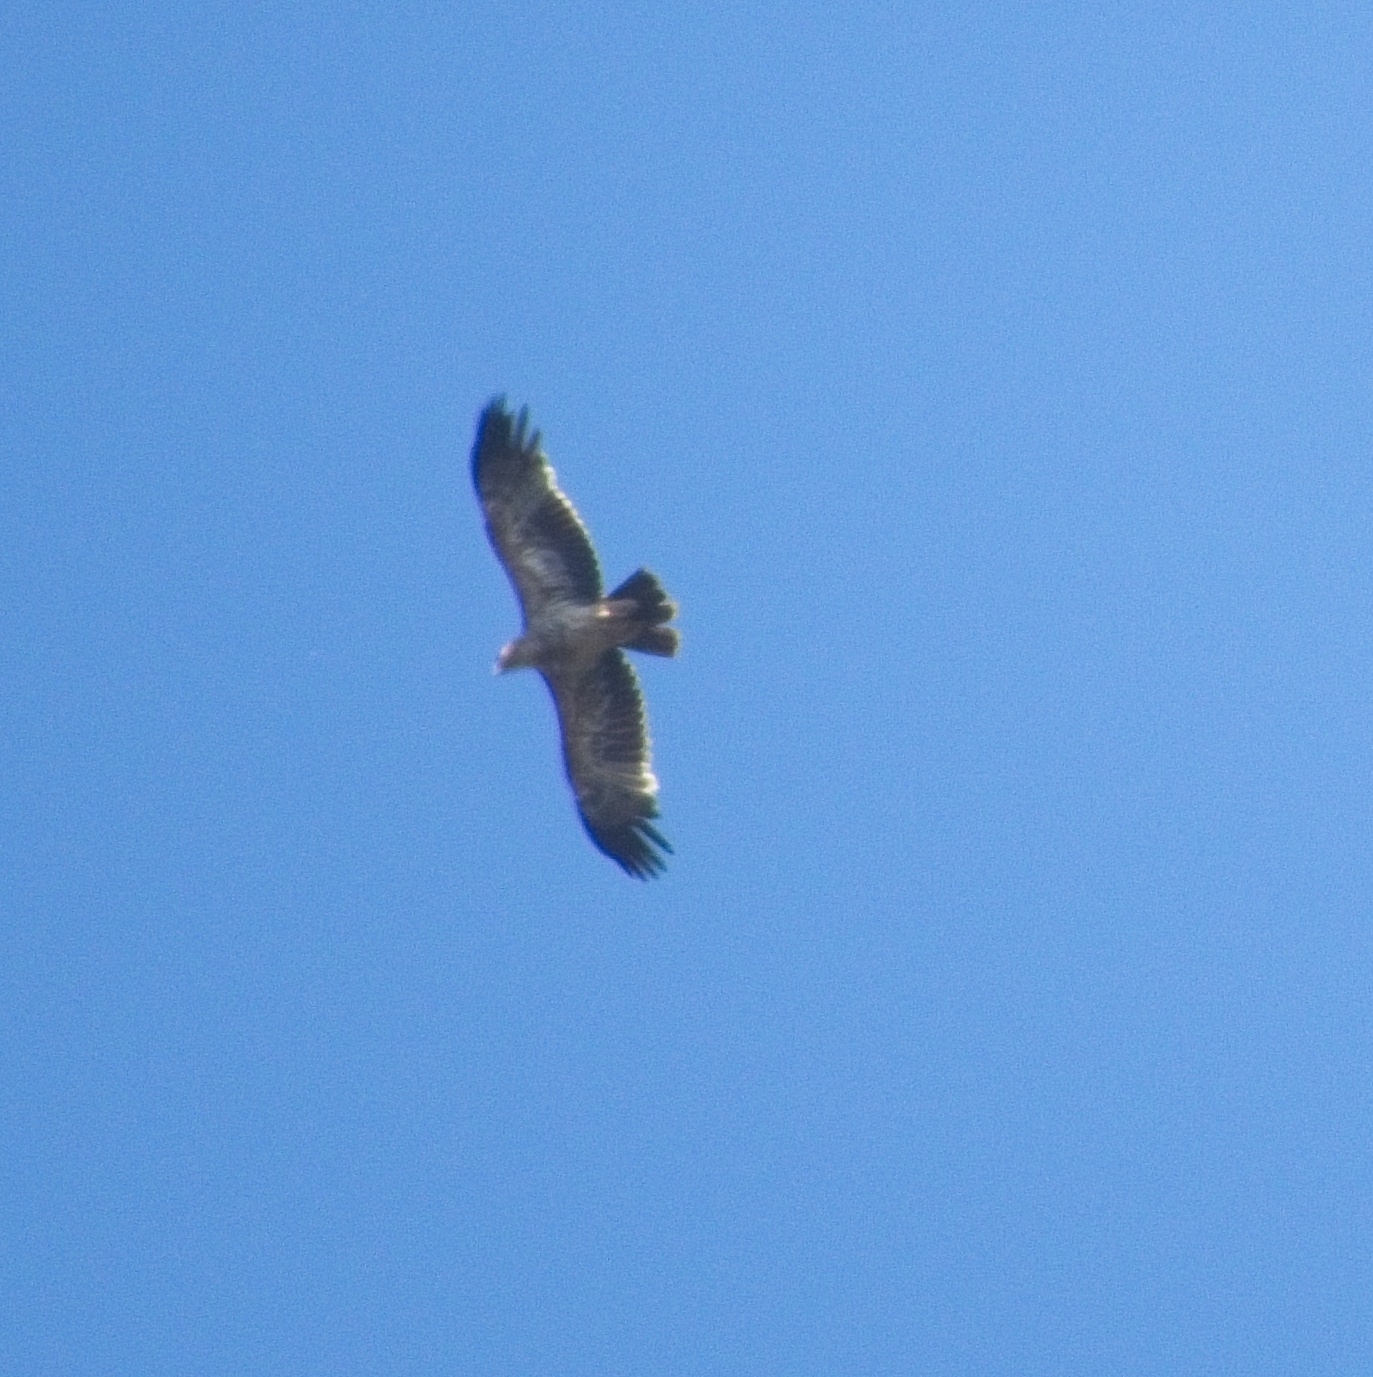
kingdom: Animalia
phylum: Chordata
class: Aves
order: Accipitriformes
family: Accipitridae
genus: Aquila
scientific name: Aquila heliaca
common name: Eastern imperial eagle
